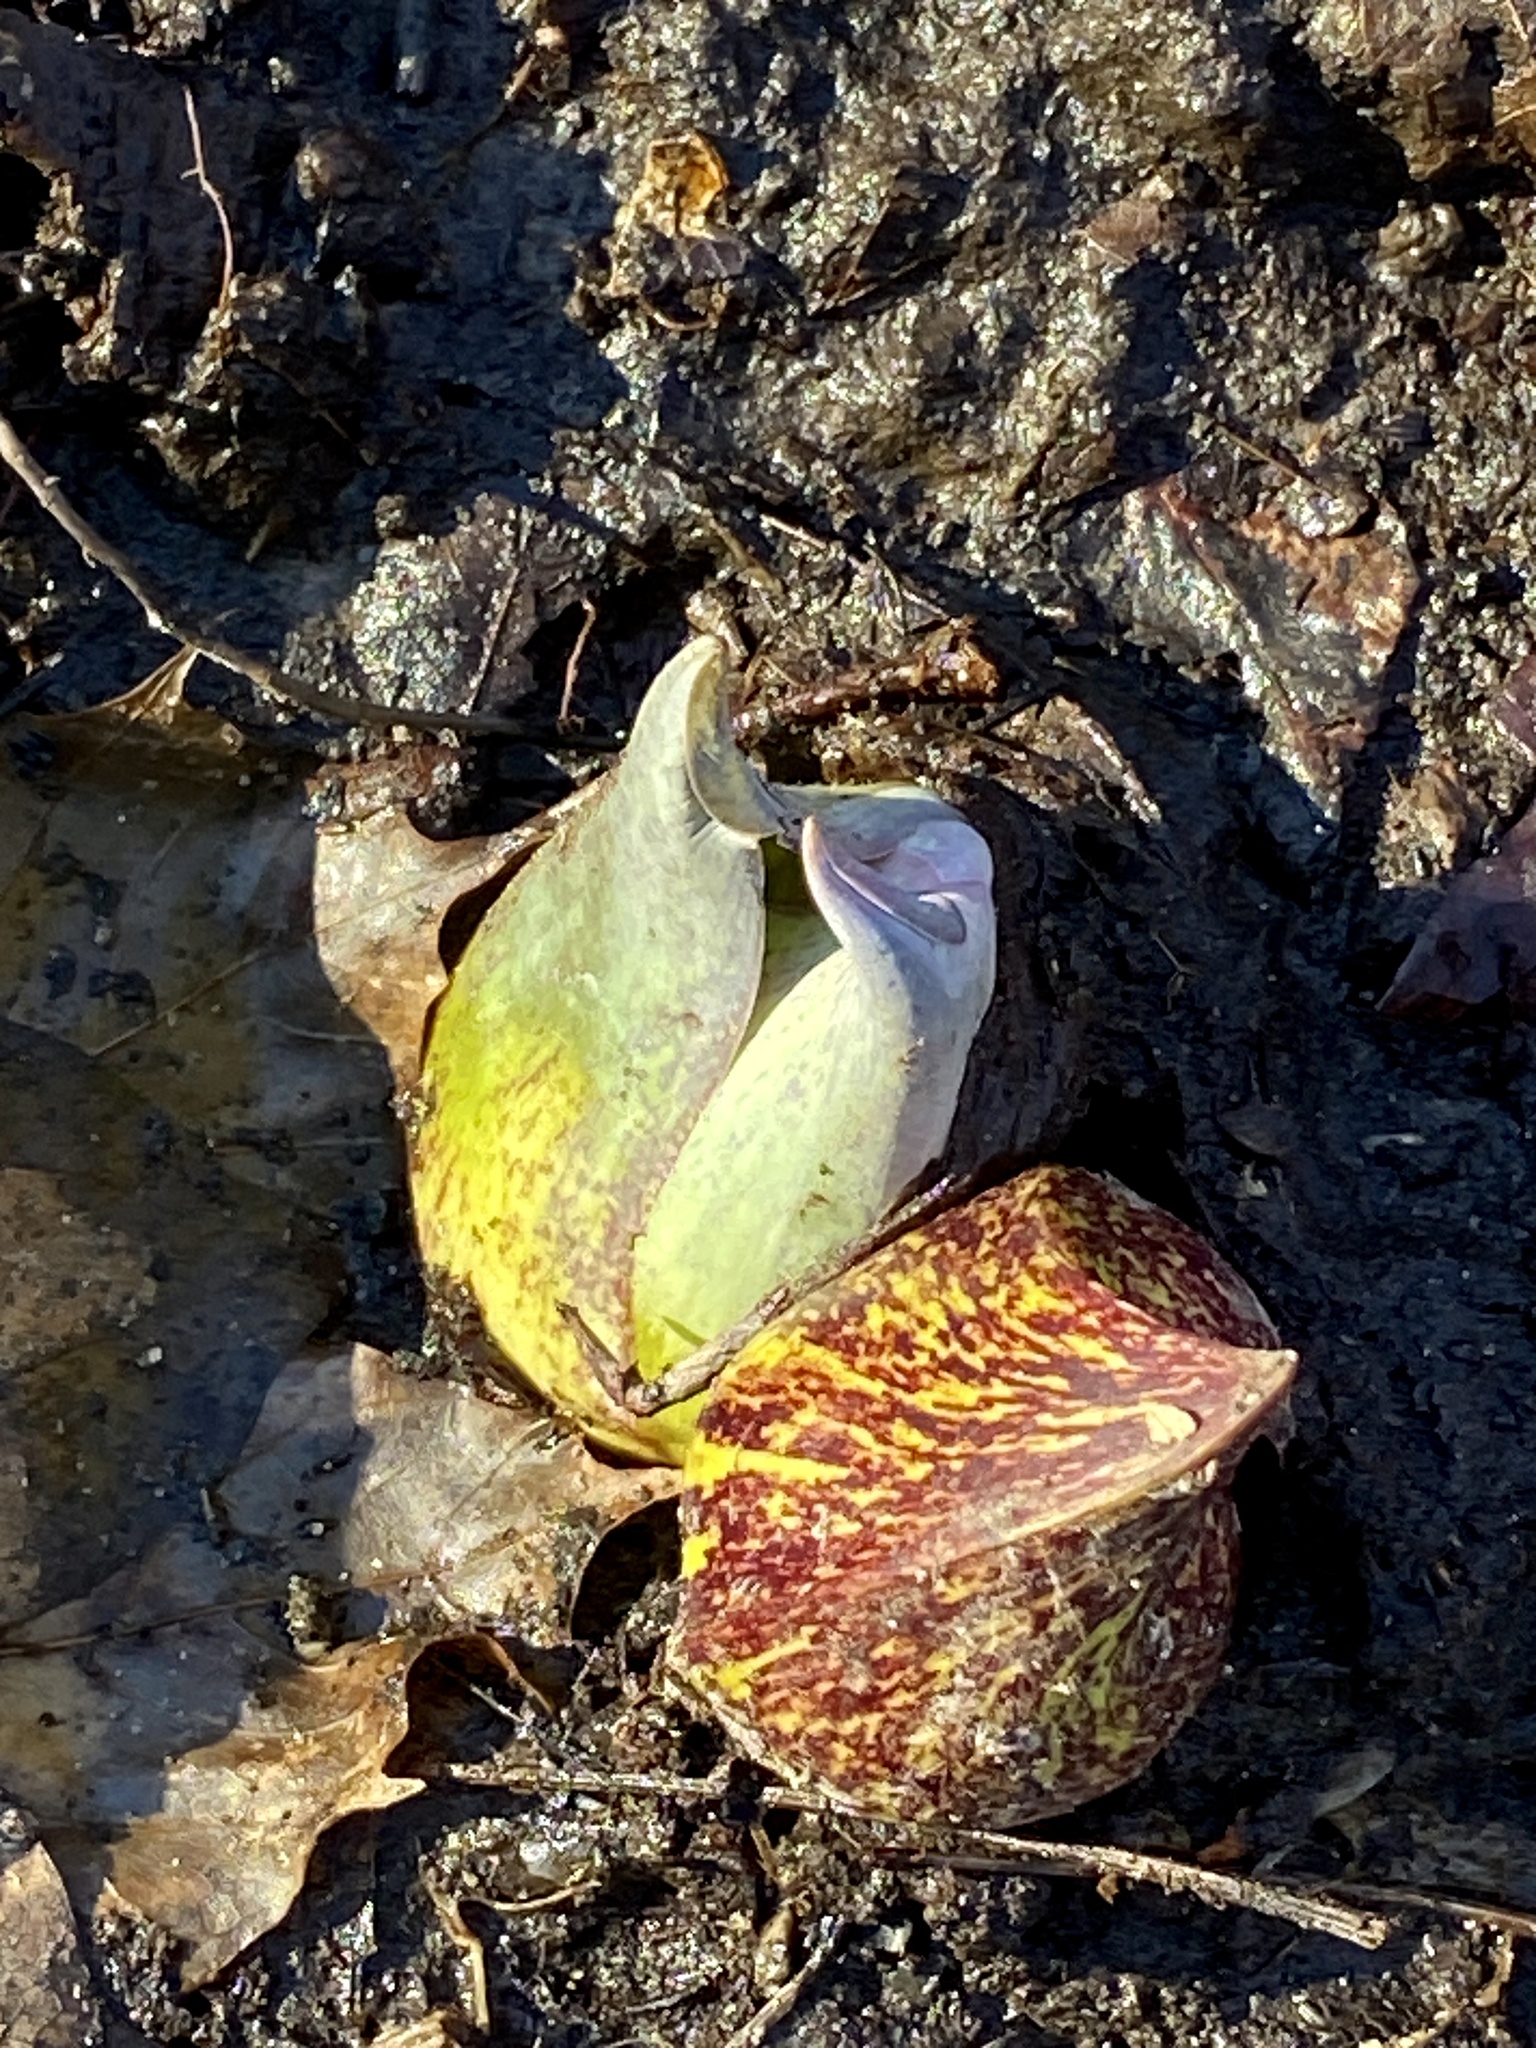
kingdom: Plantae
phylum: Tracheophyta
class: Liliopsida
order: Alismatales
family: Araceae
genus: Symplocarpus
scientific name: Symplocarpus foetidus
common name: Eastern skunk cabbage
